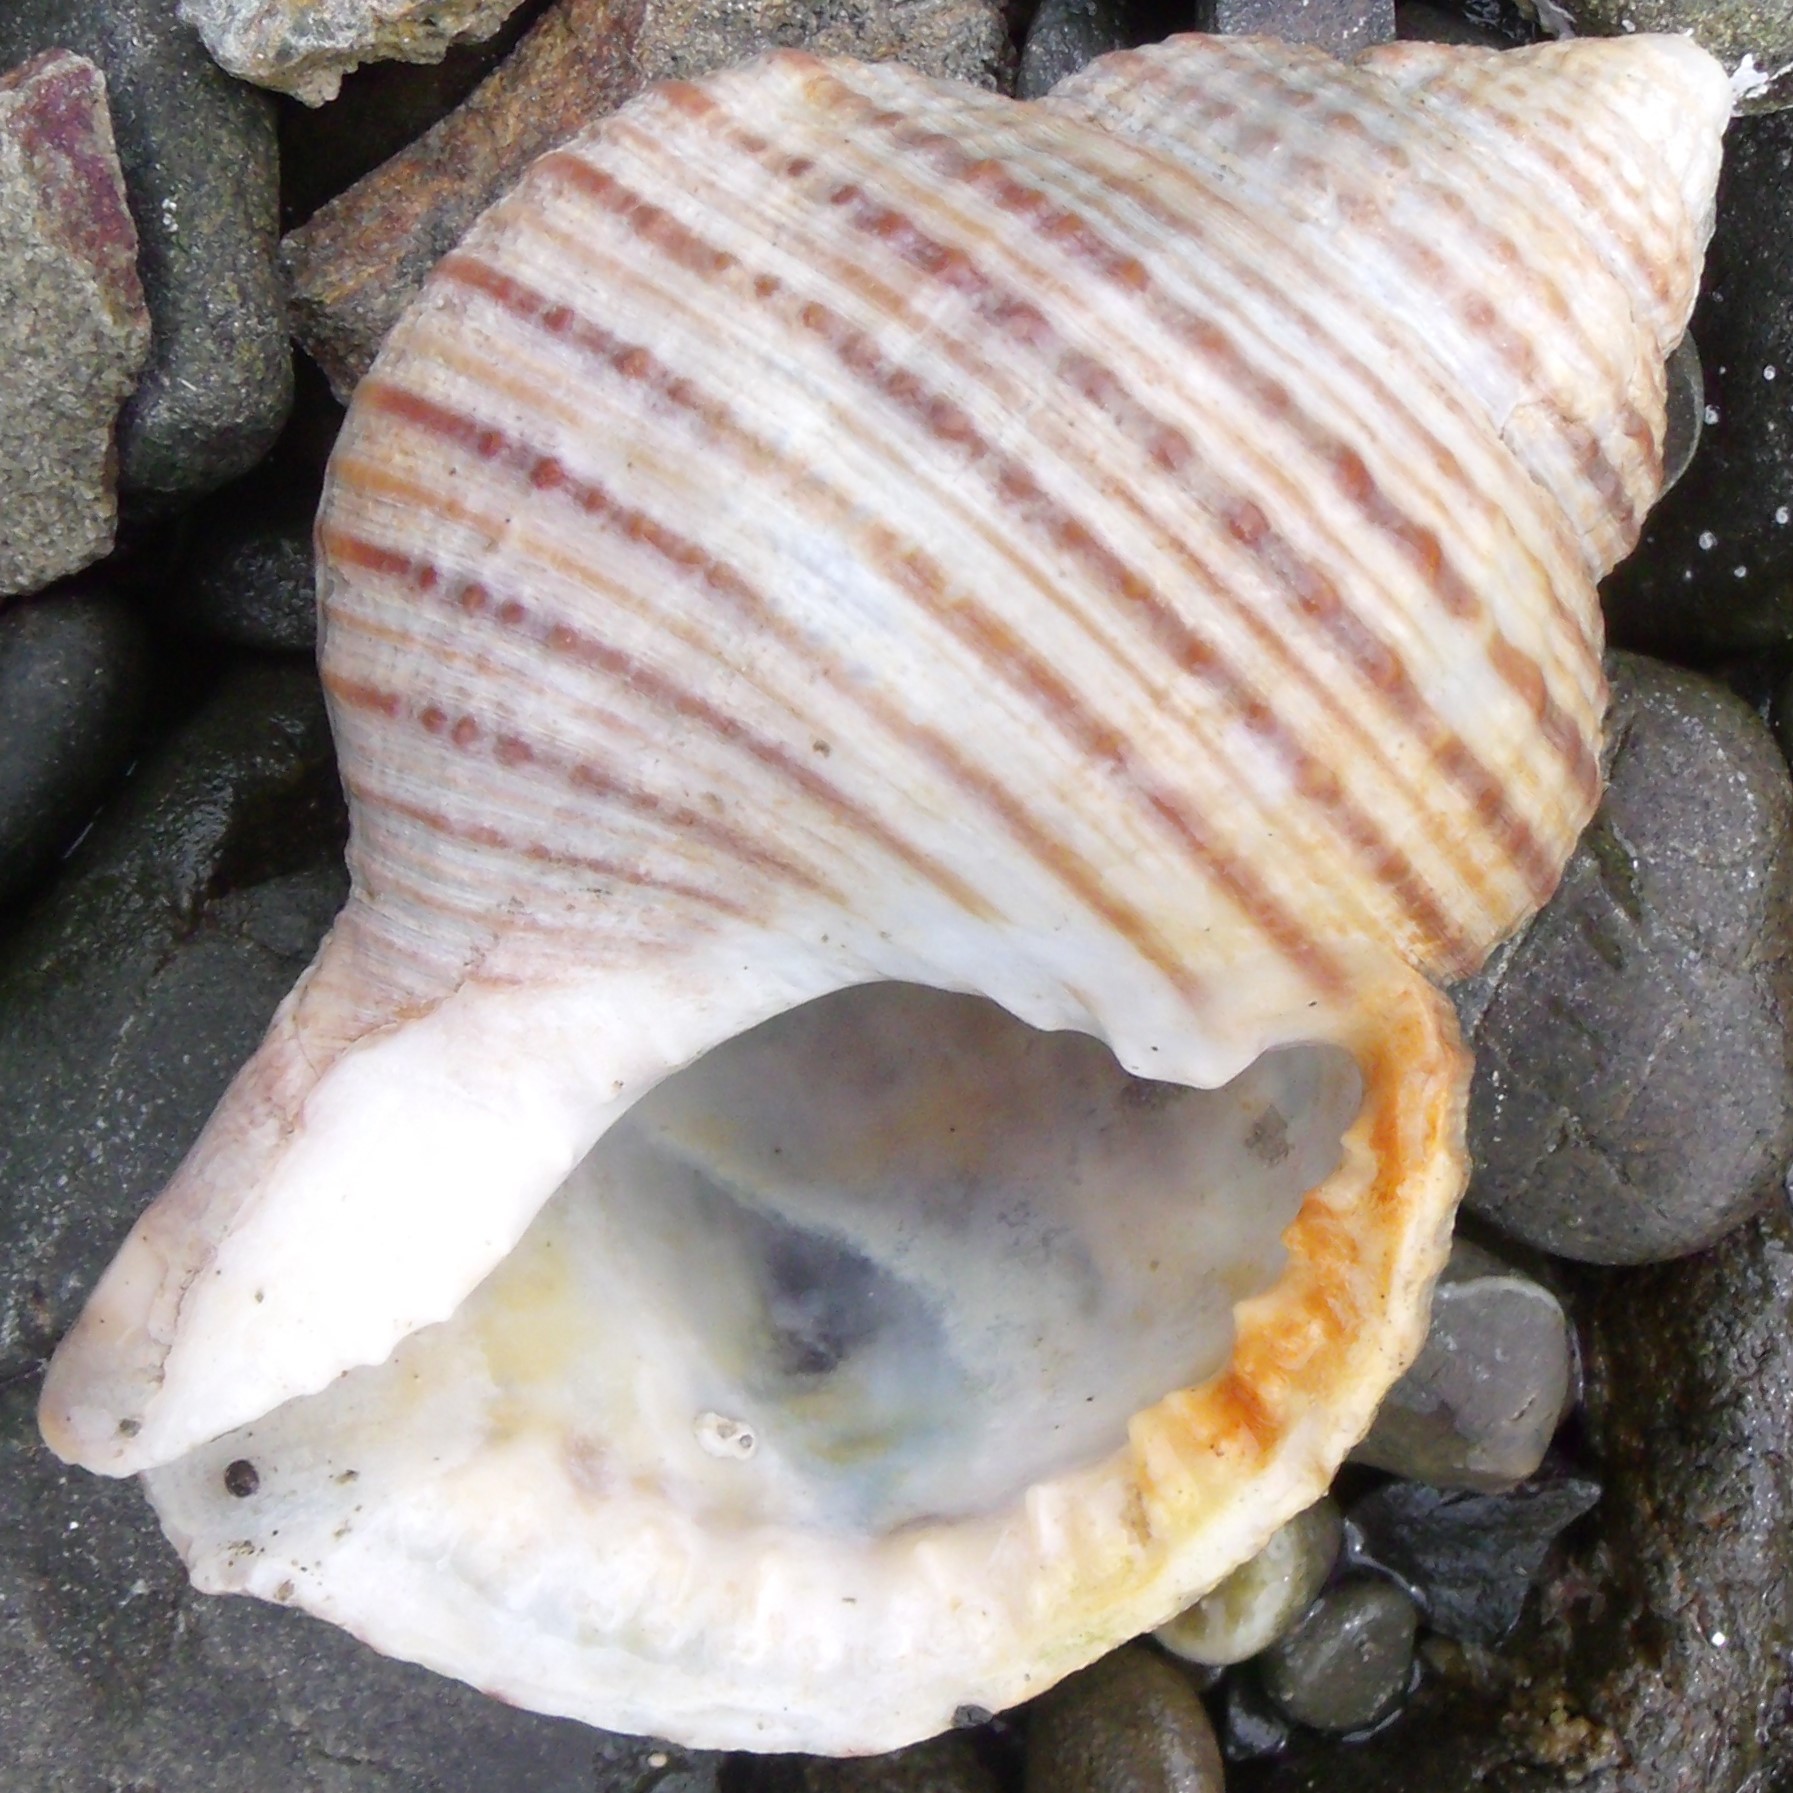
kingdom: Animalia
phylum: Mollusca
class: Gastropoda
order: Littorinimorpha
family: Cymatiidae
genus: Argobuccinum
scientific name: Argobuccinum pustulosum
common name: Pustular triton
